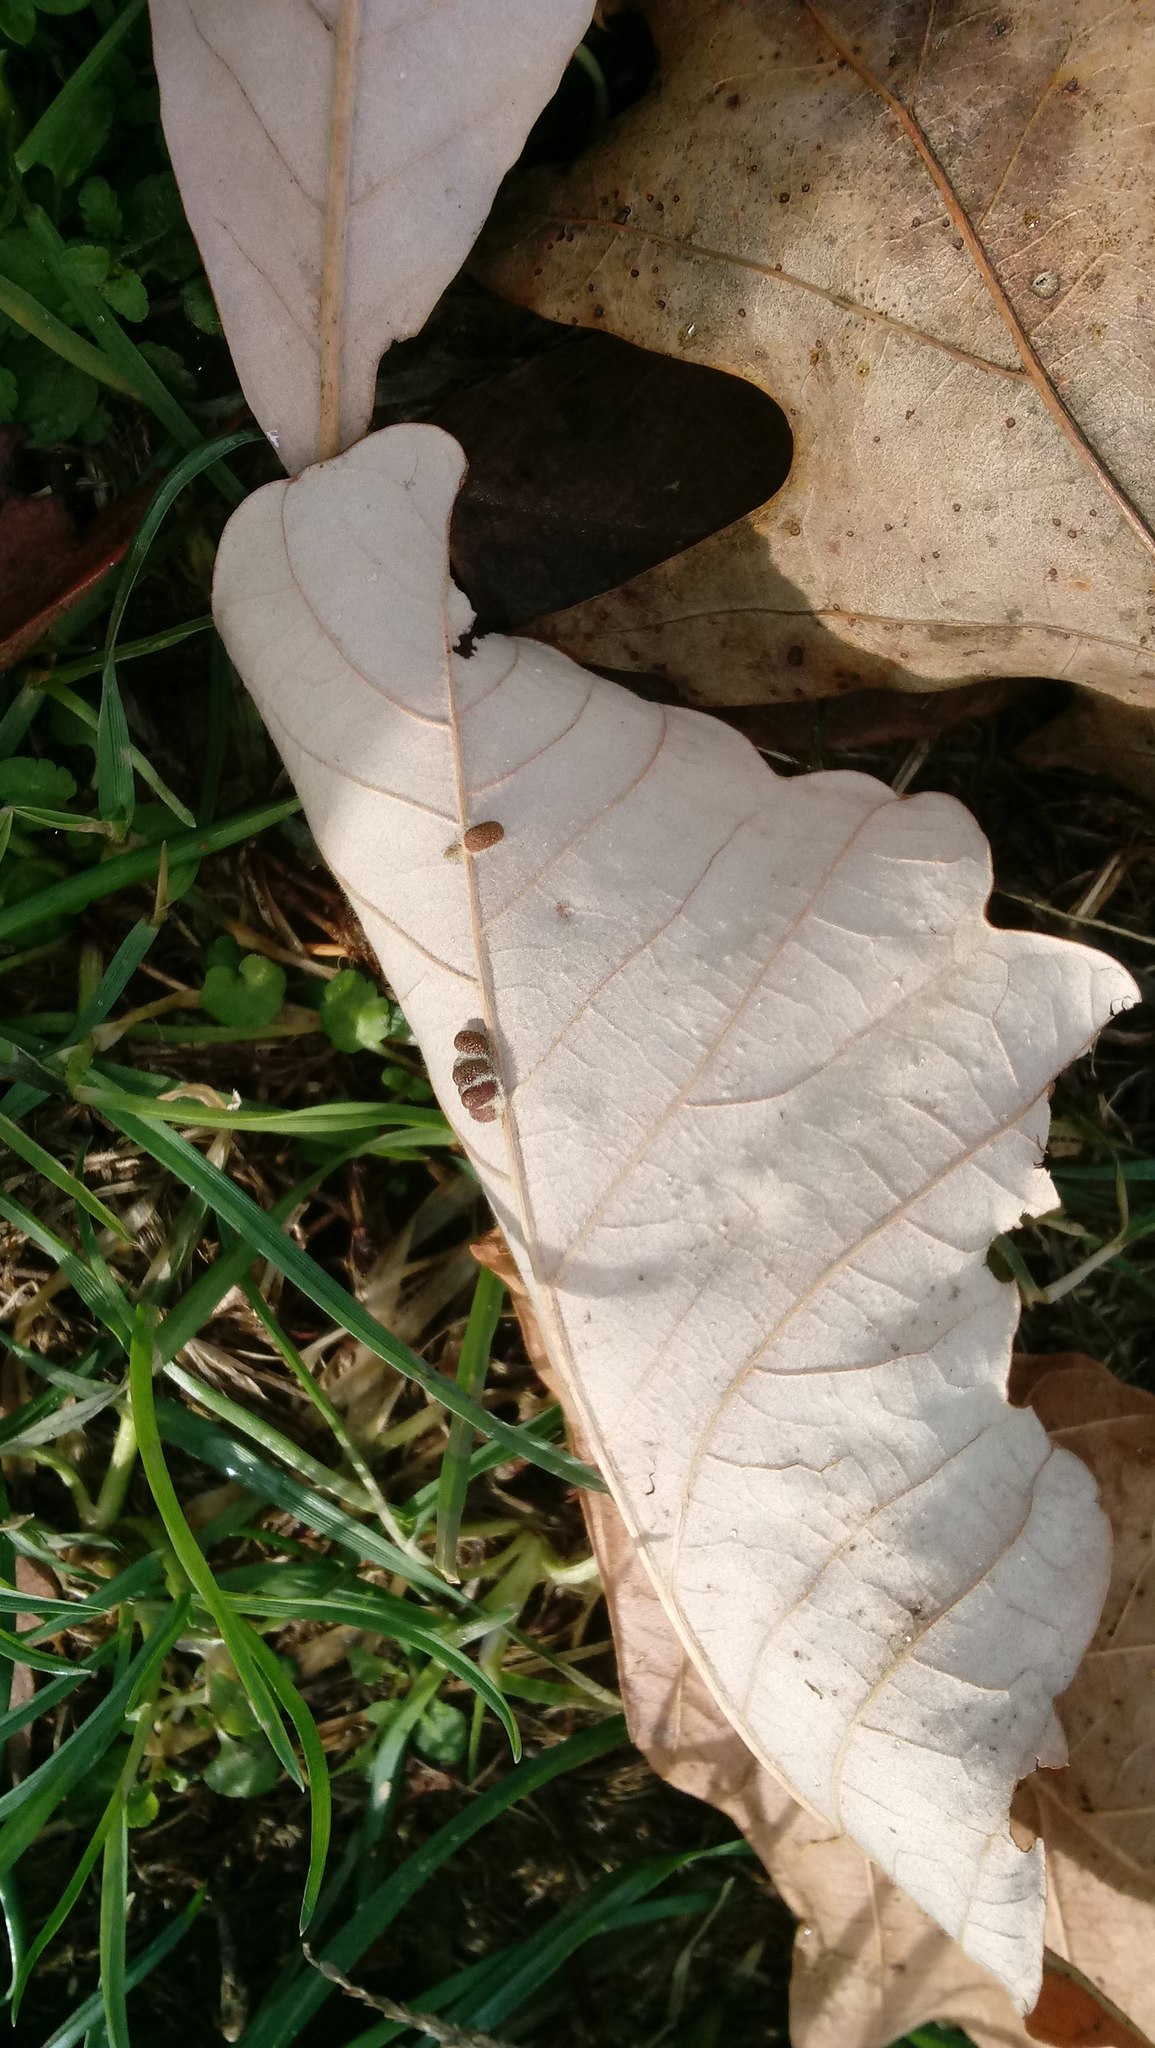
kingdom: Animalia
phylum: Arthropoda
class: Insecta
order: Hymenoptera
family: Cynipidae
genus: Andricus
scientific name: Andricus Druon ignotum
